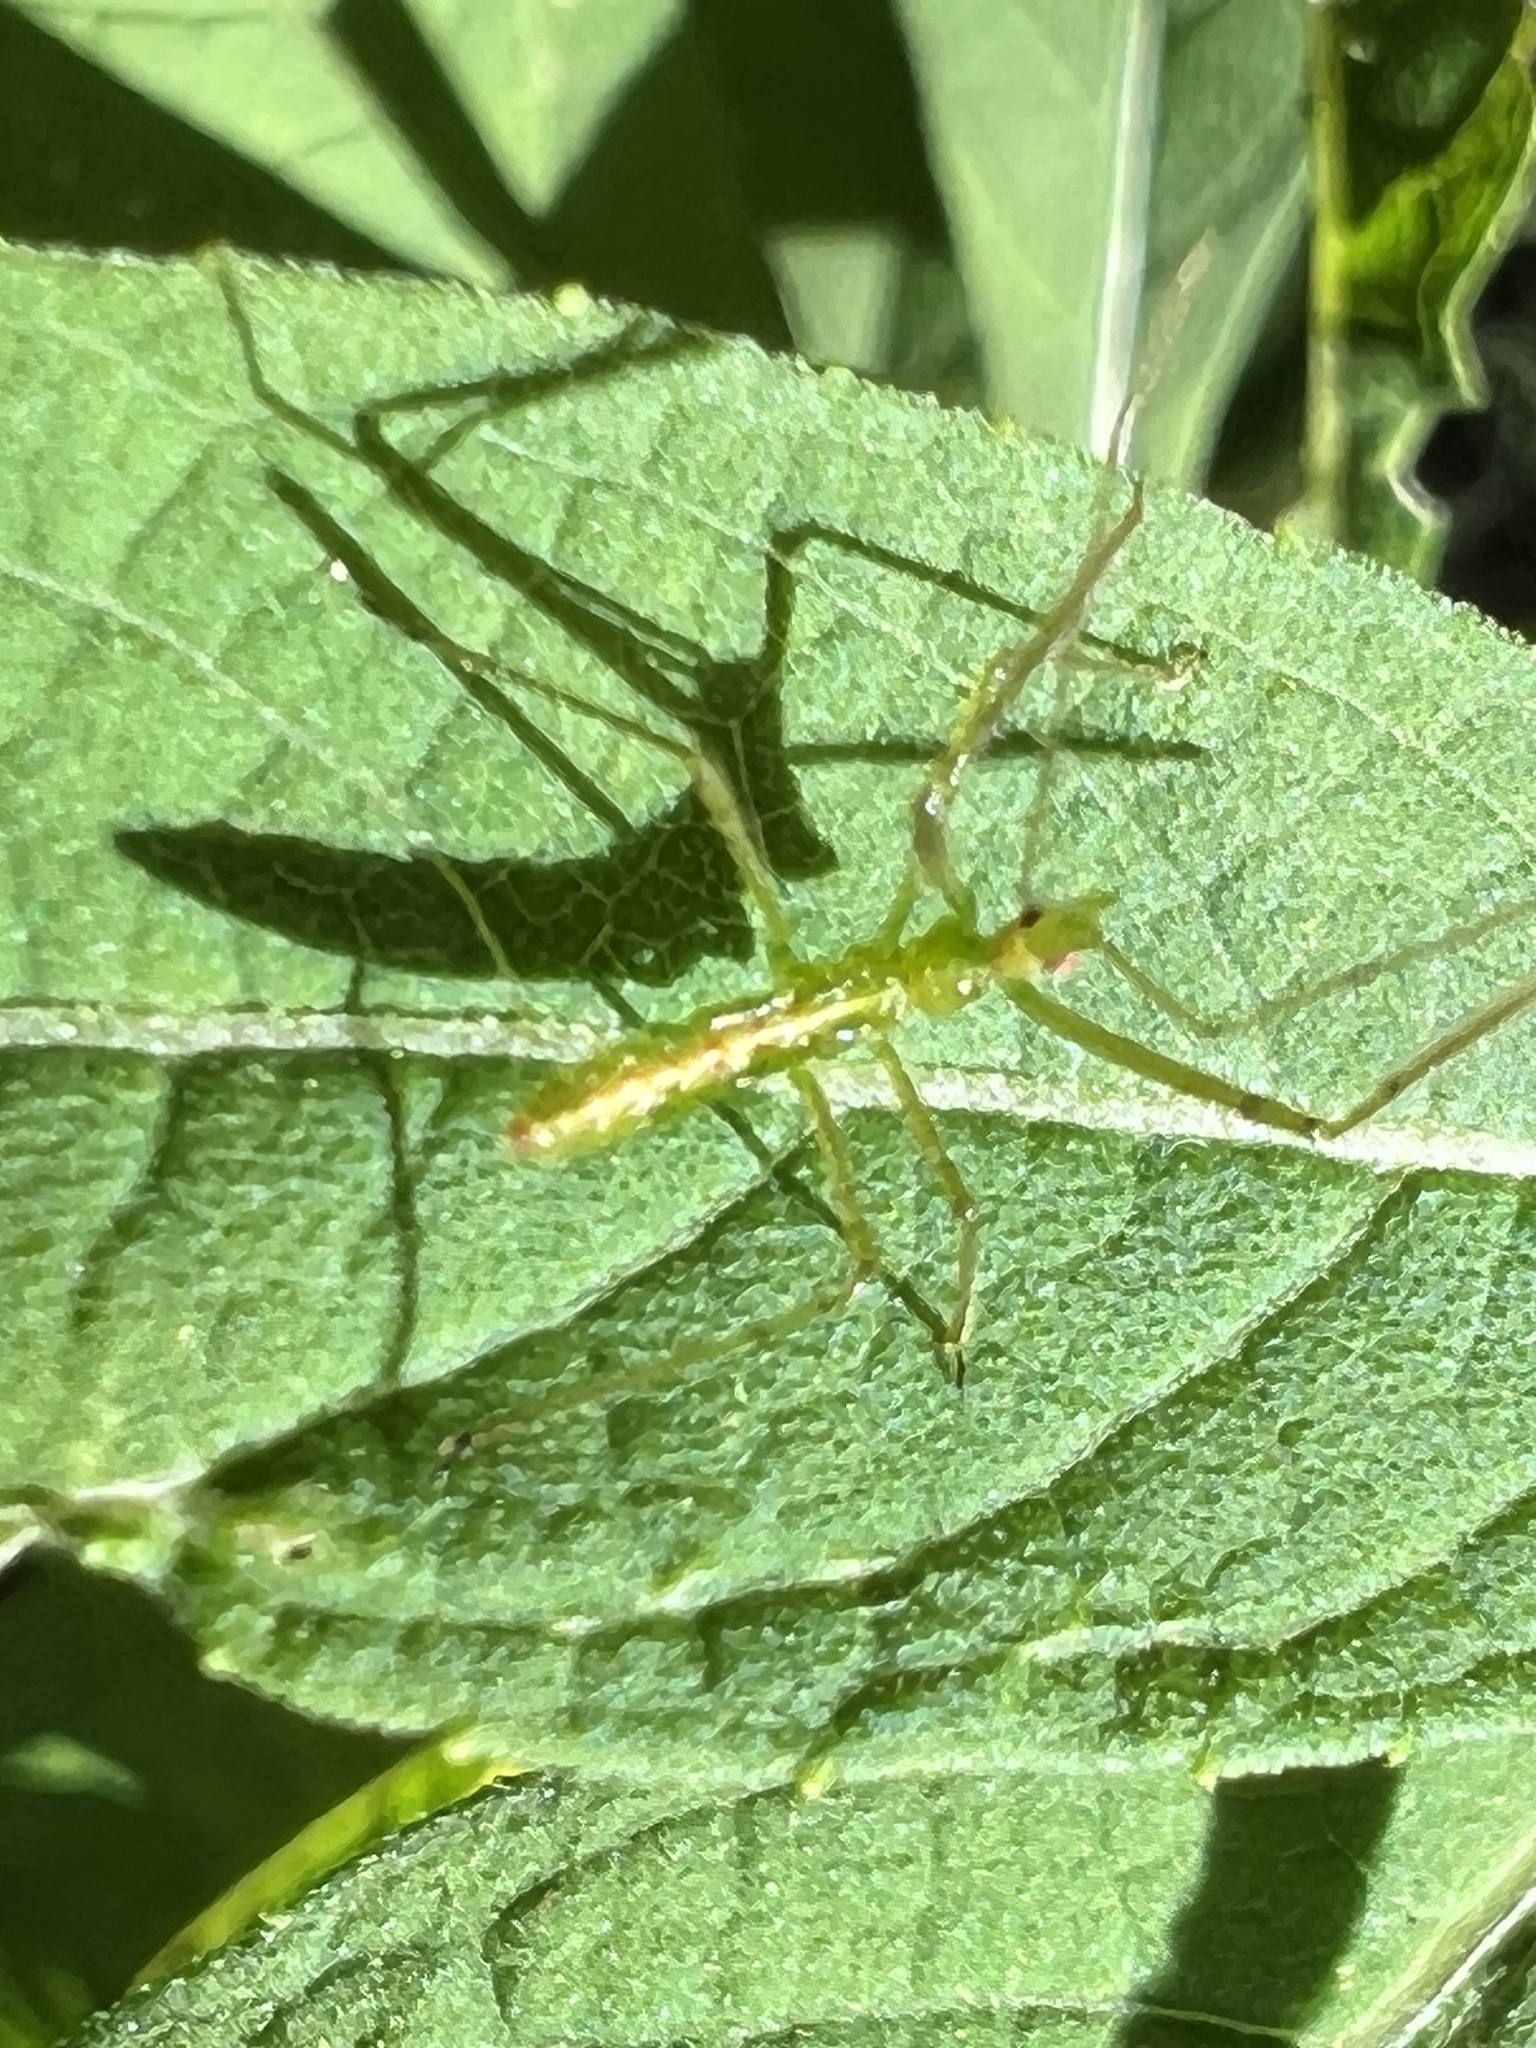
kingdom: Animalia
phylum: Arthropoda
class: Insecta
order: Hemiptera
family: Reduviidae
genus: Zelus
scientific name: Zelus luridus
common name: Pale green assassin bug
